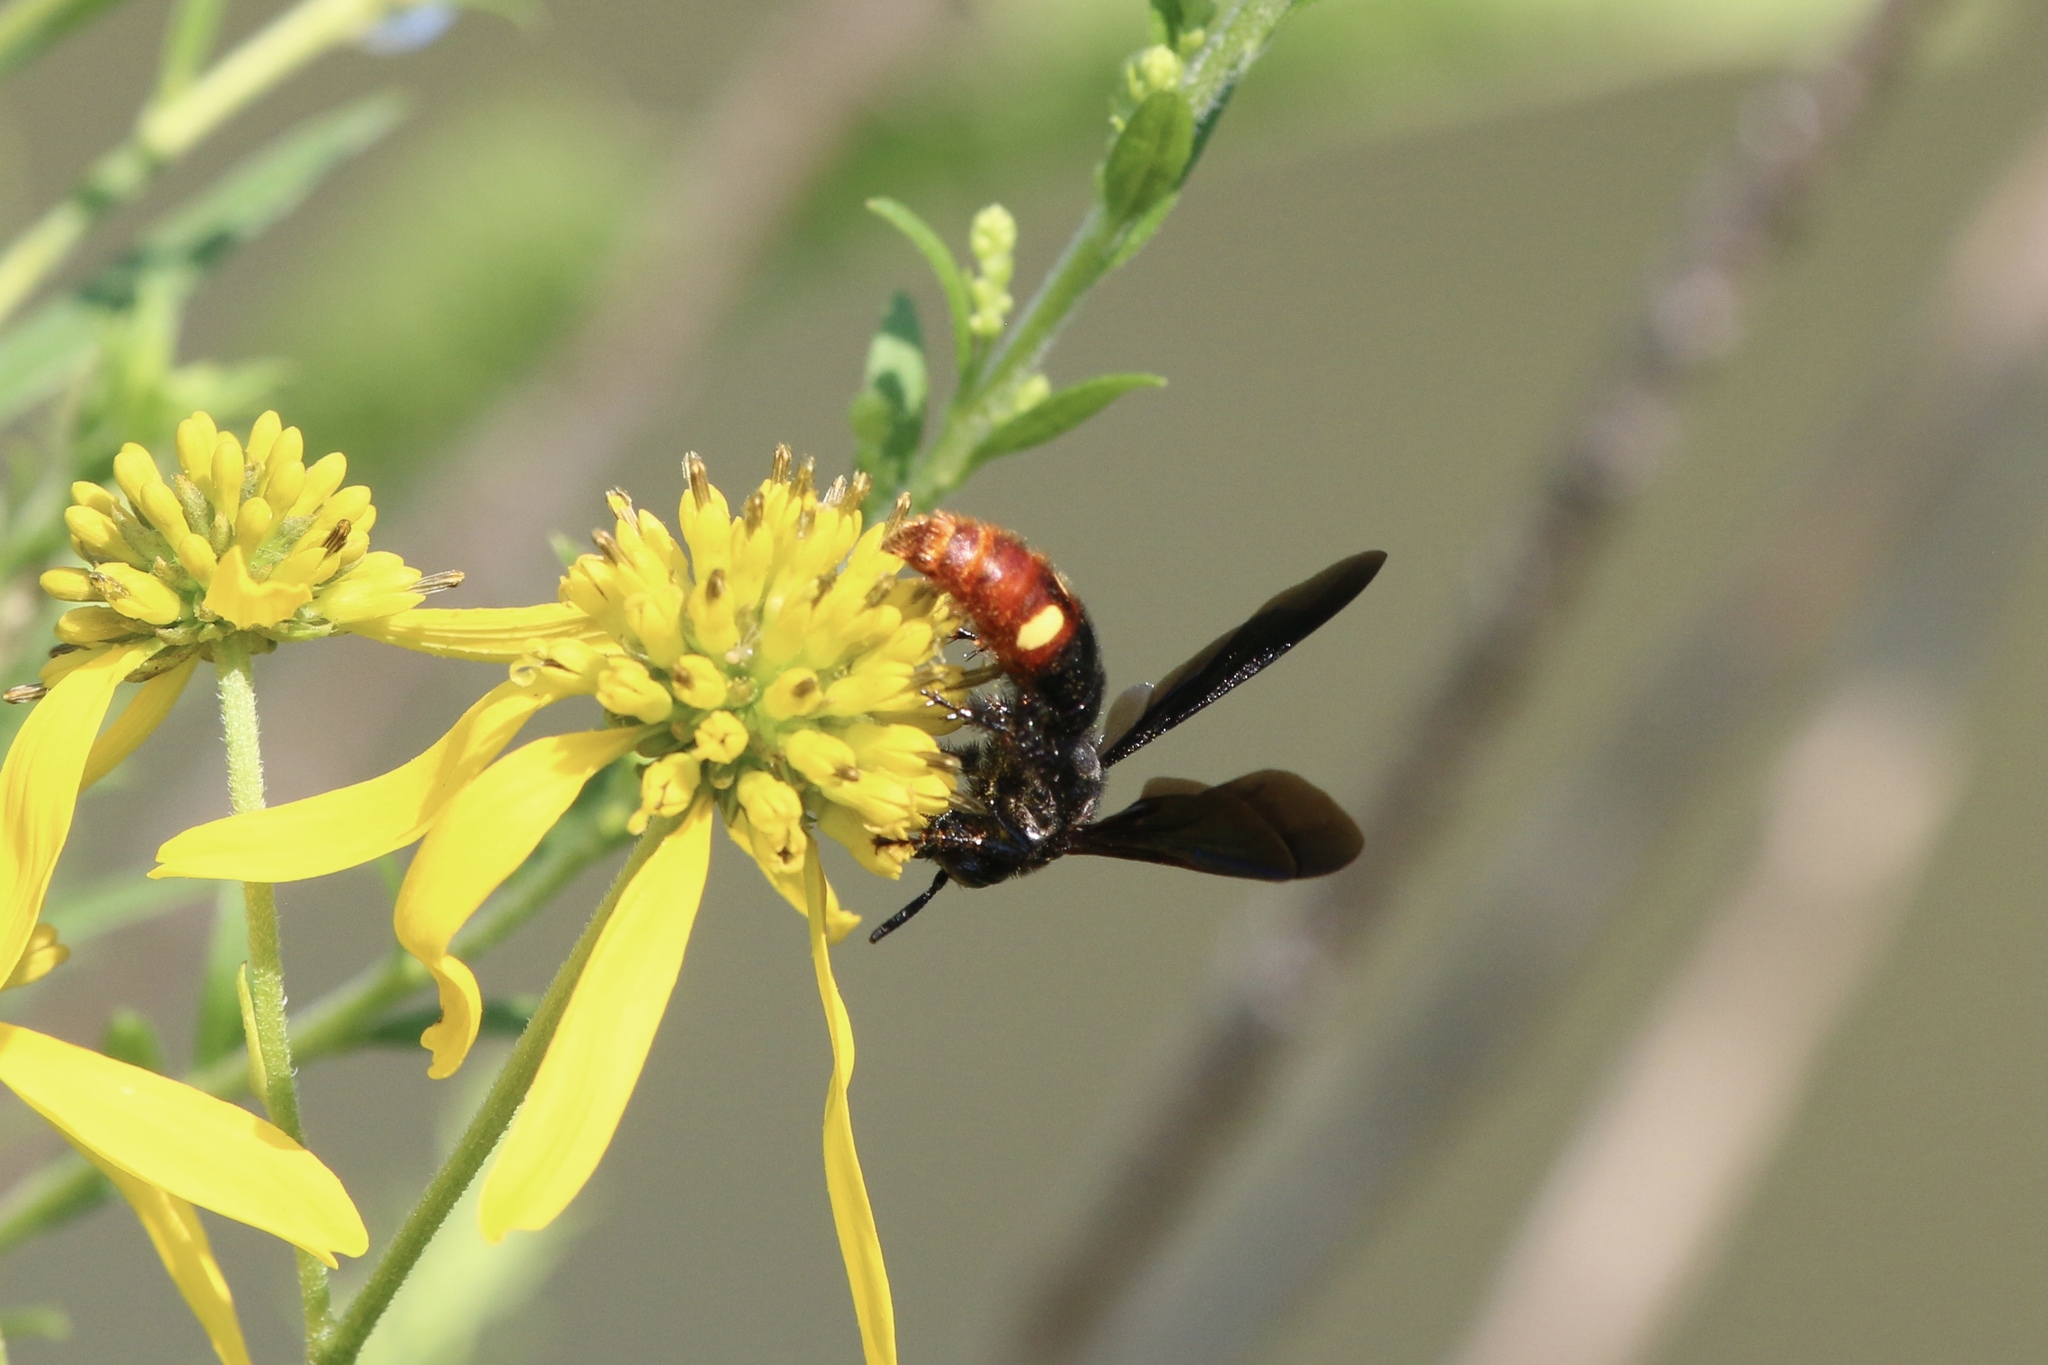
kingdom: Animalia
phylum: Arthropoda
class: Insecta
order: Hymenoptera
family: Scoliidae
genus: Scolia
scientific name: Scolia dubia
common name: Blue-winged scoliid wasp
